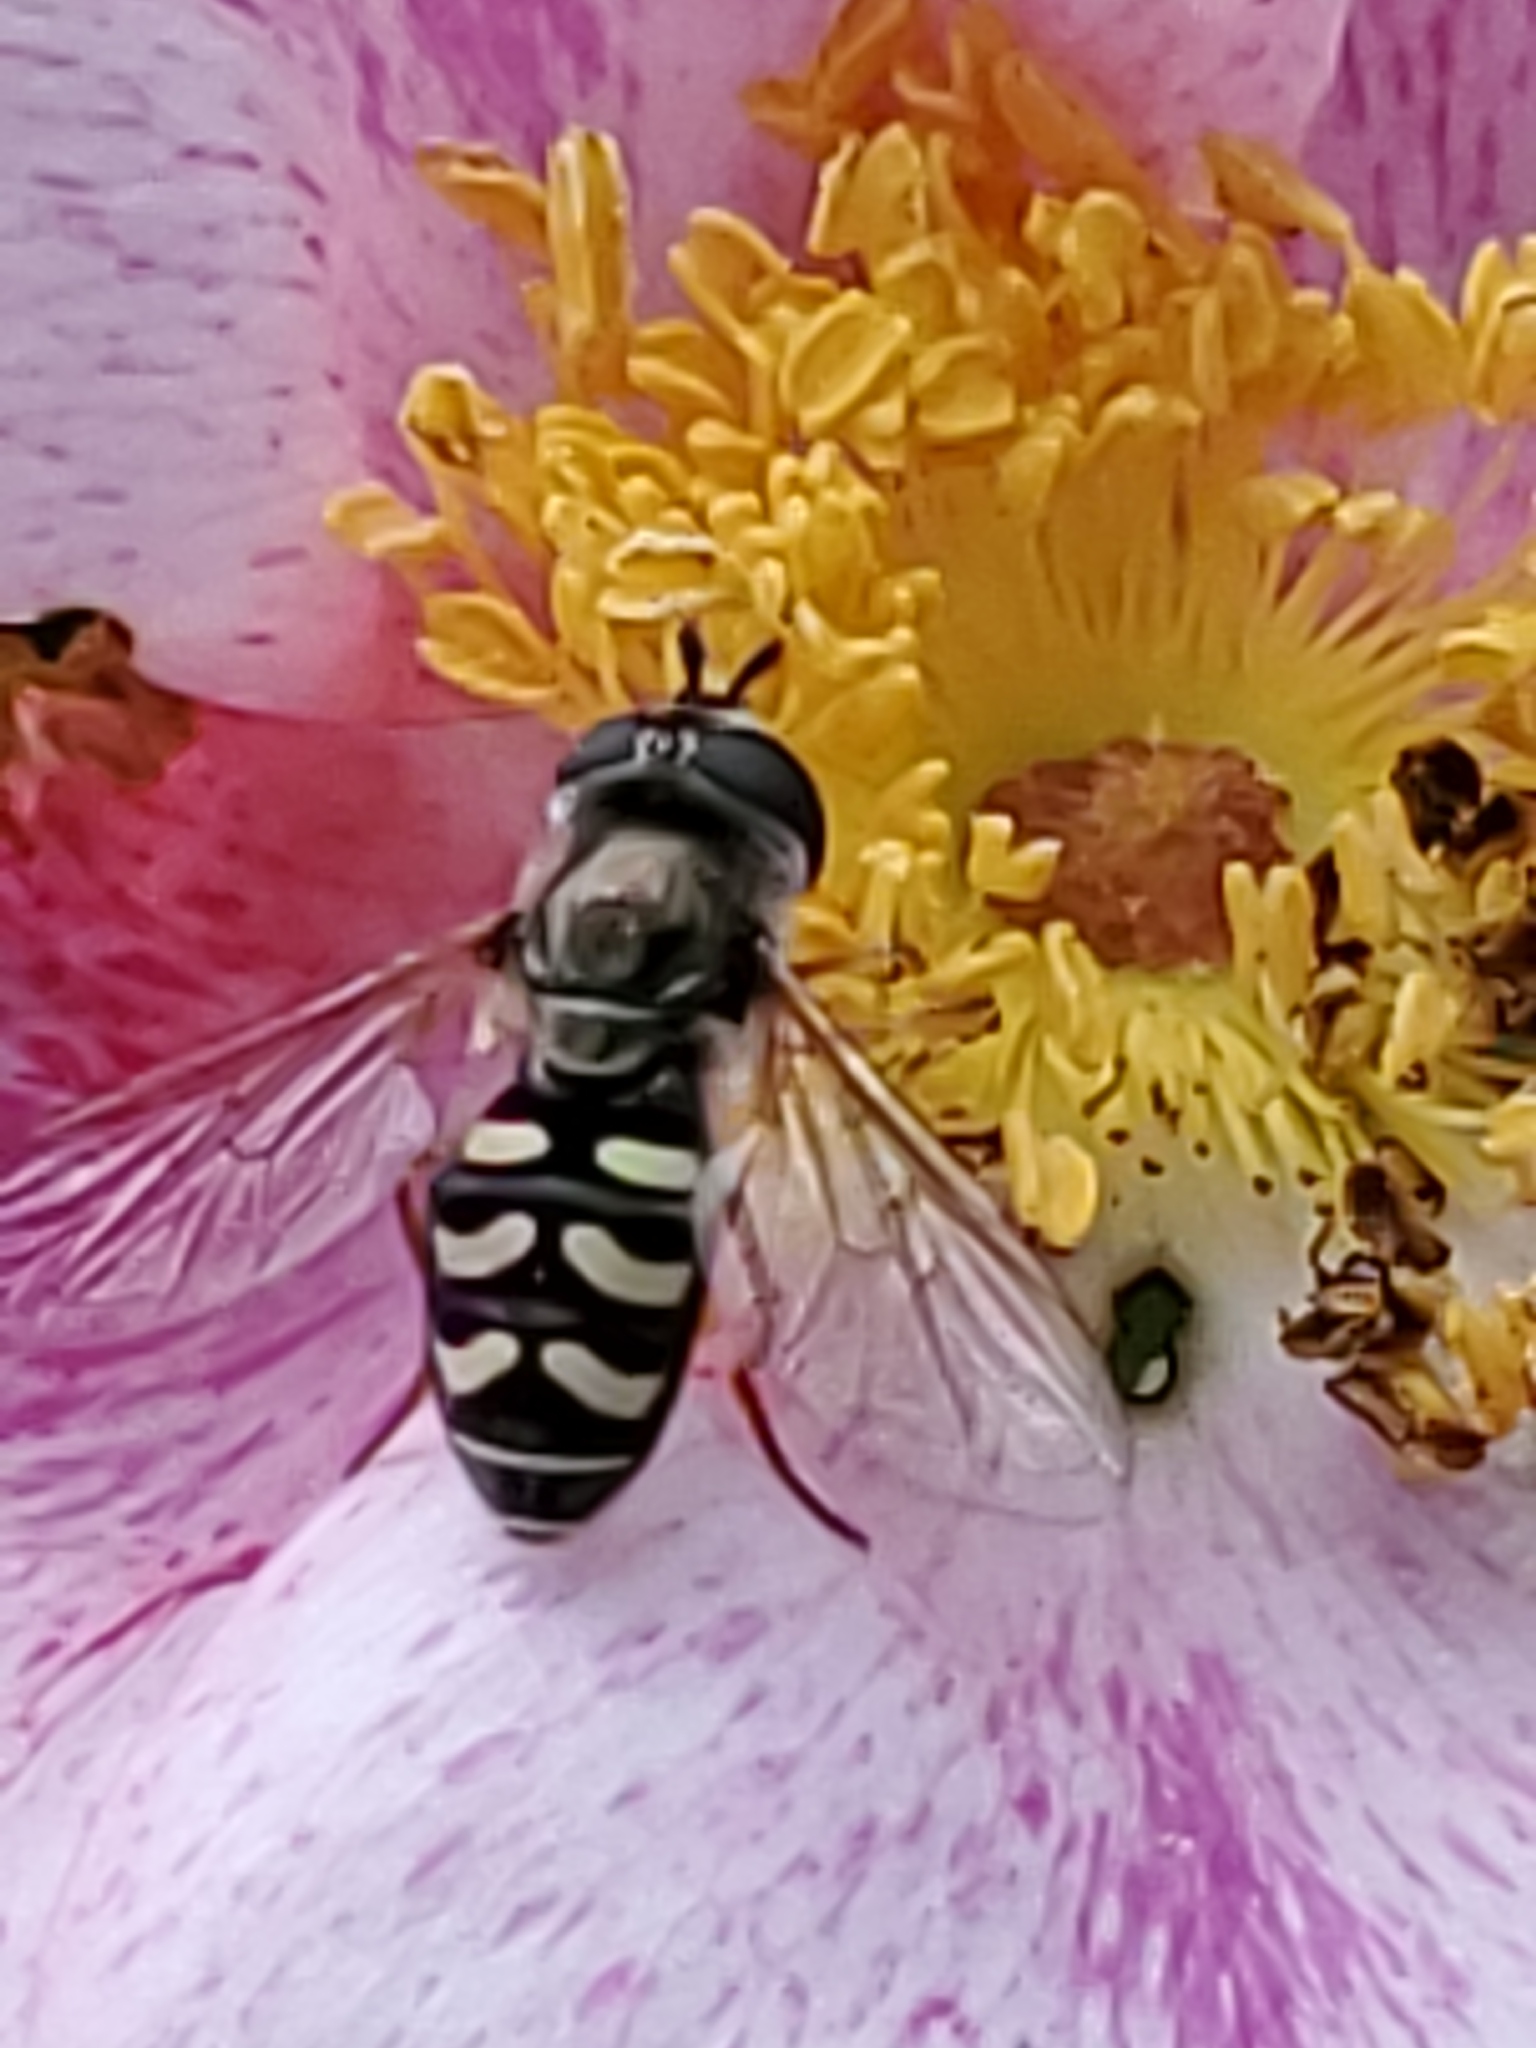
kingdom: Animalia
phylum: Arthropoda
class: Insecta
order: Diptera
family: Syrphidae
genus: Eupeodes
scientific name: Eupeodes volucris
